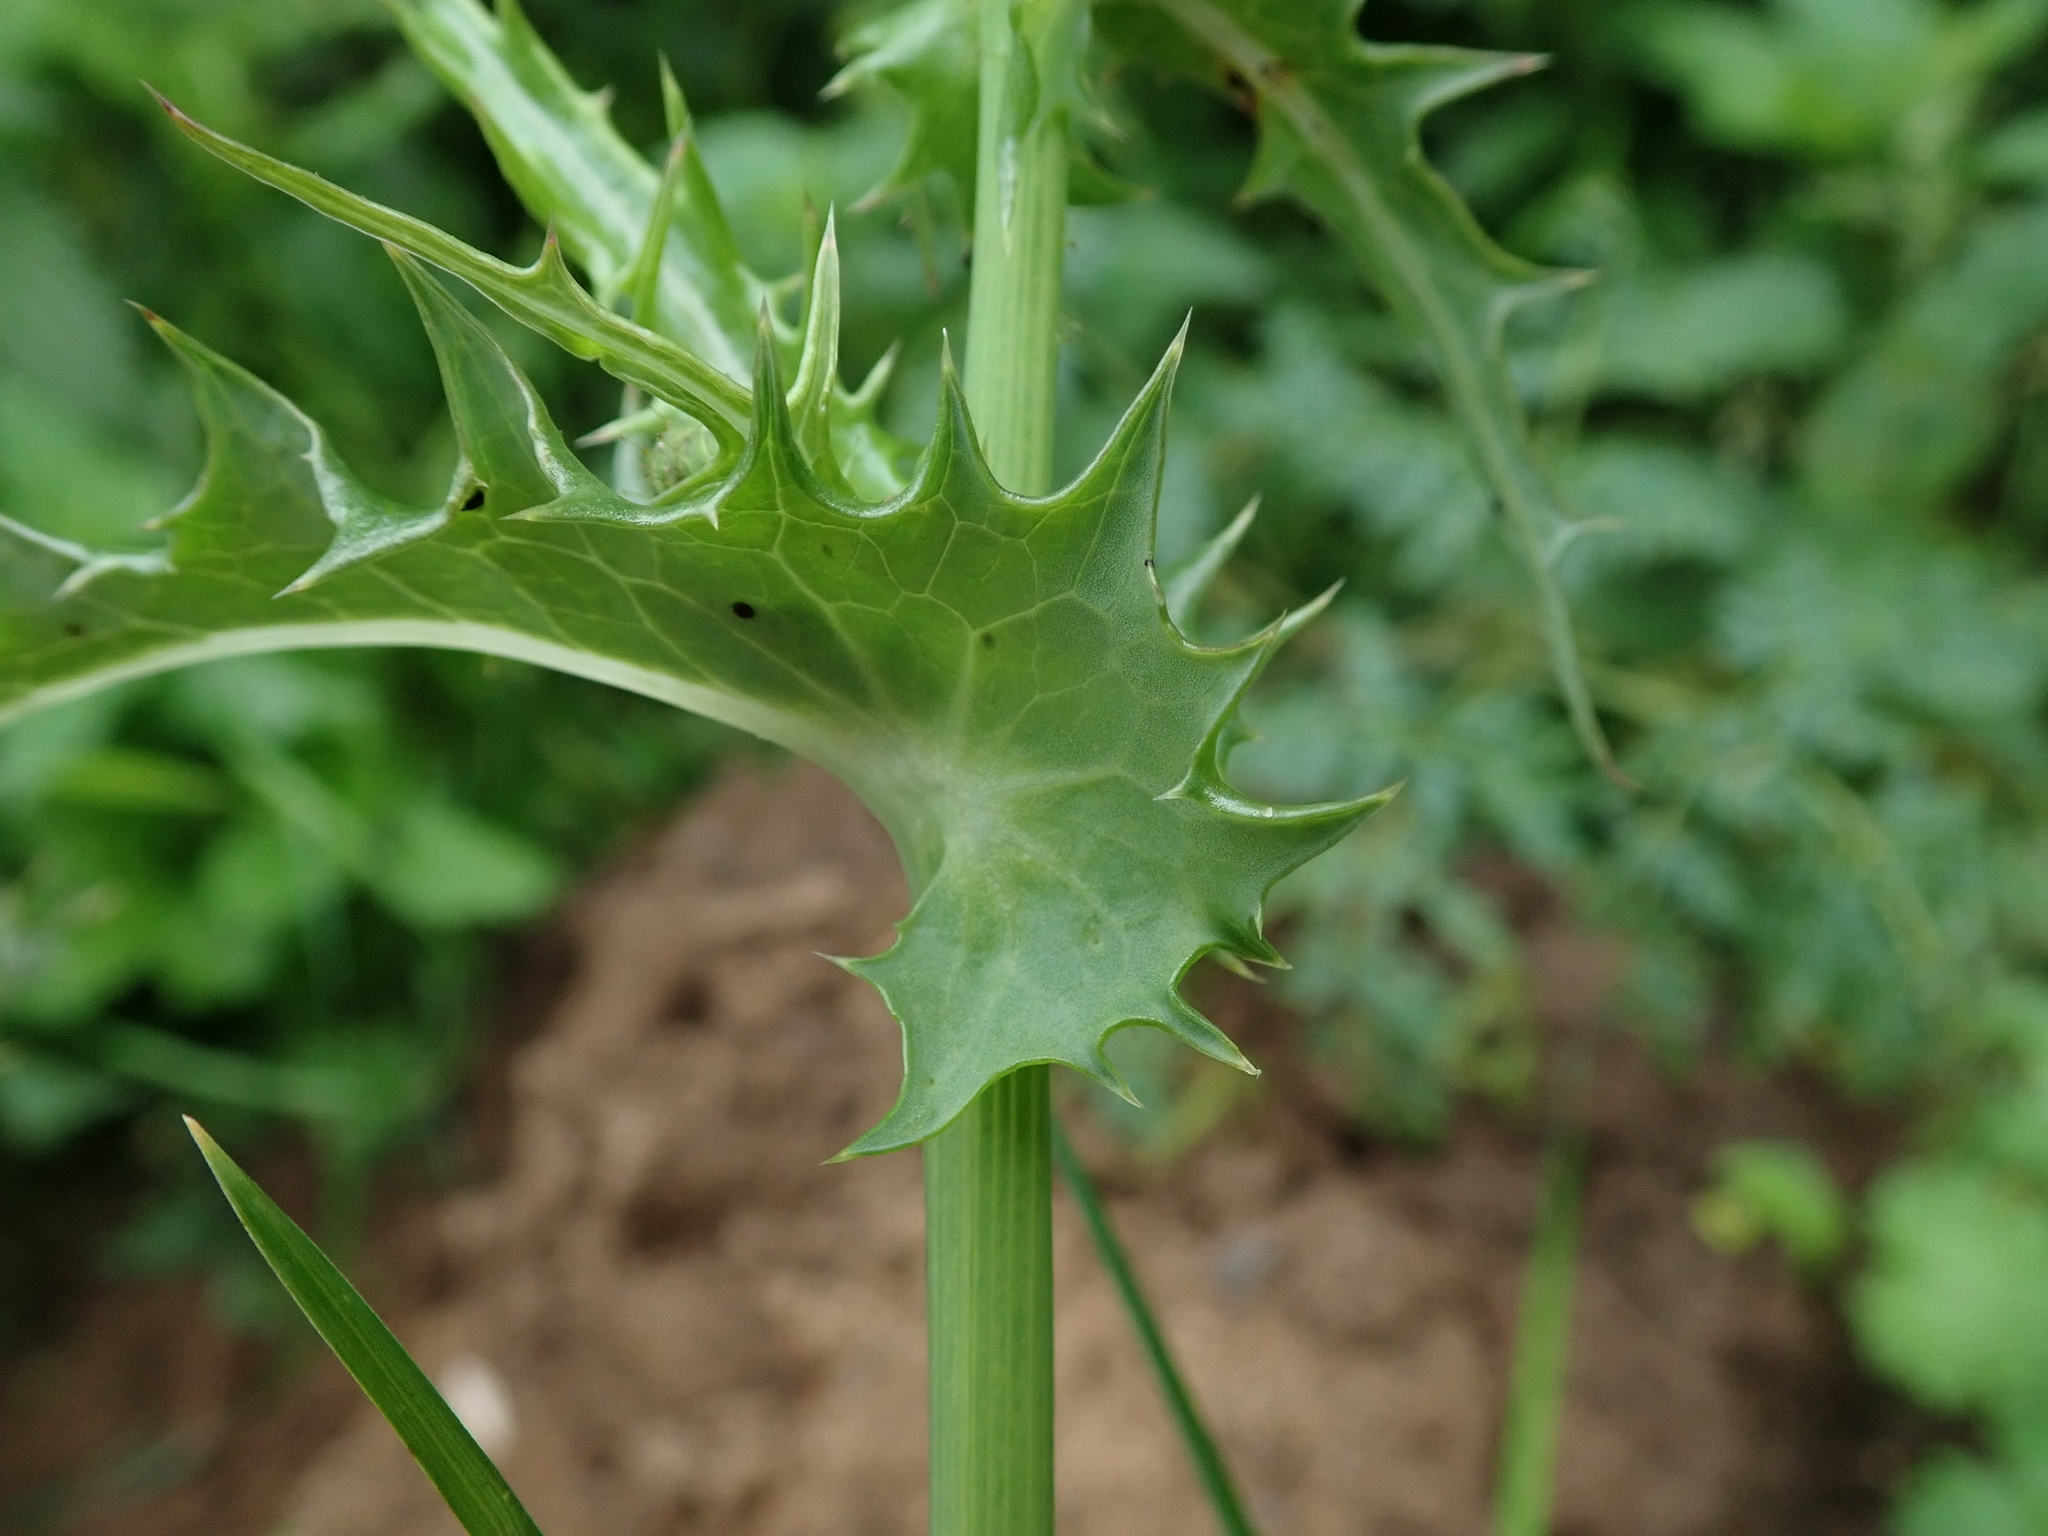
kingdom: Plantae
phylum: Tracheophyta
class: Magnoliopsida
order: Asterales
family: Asteraceae
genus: Sonchus
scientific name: Sonchus asper
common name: Prickly sow-thistle
